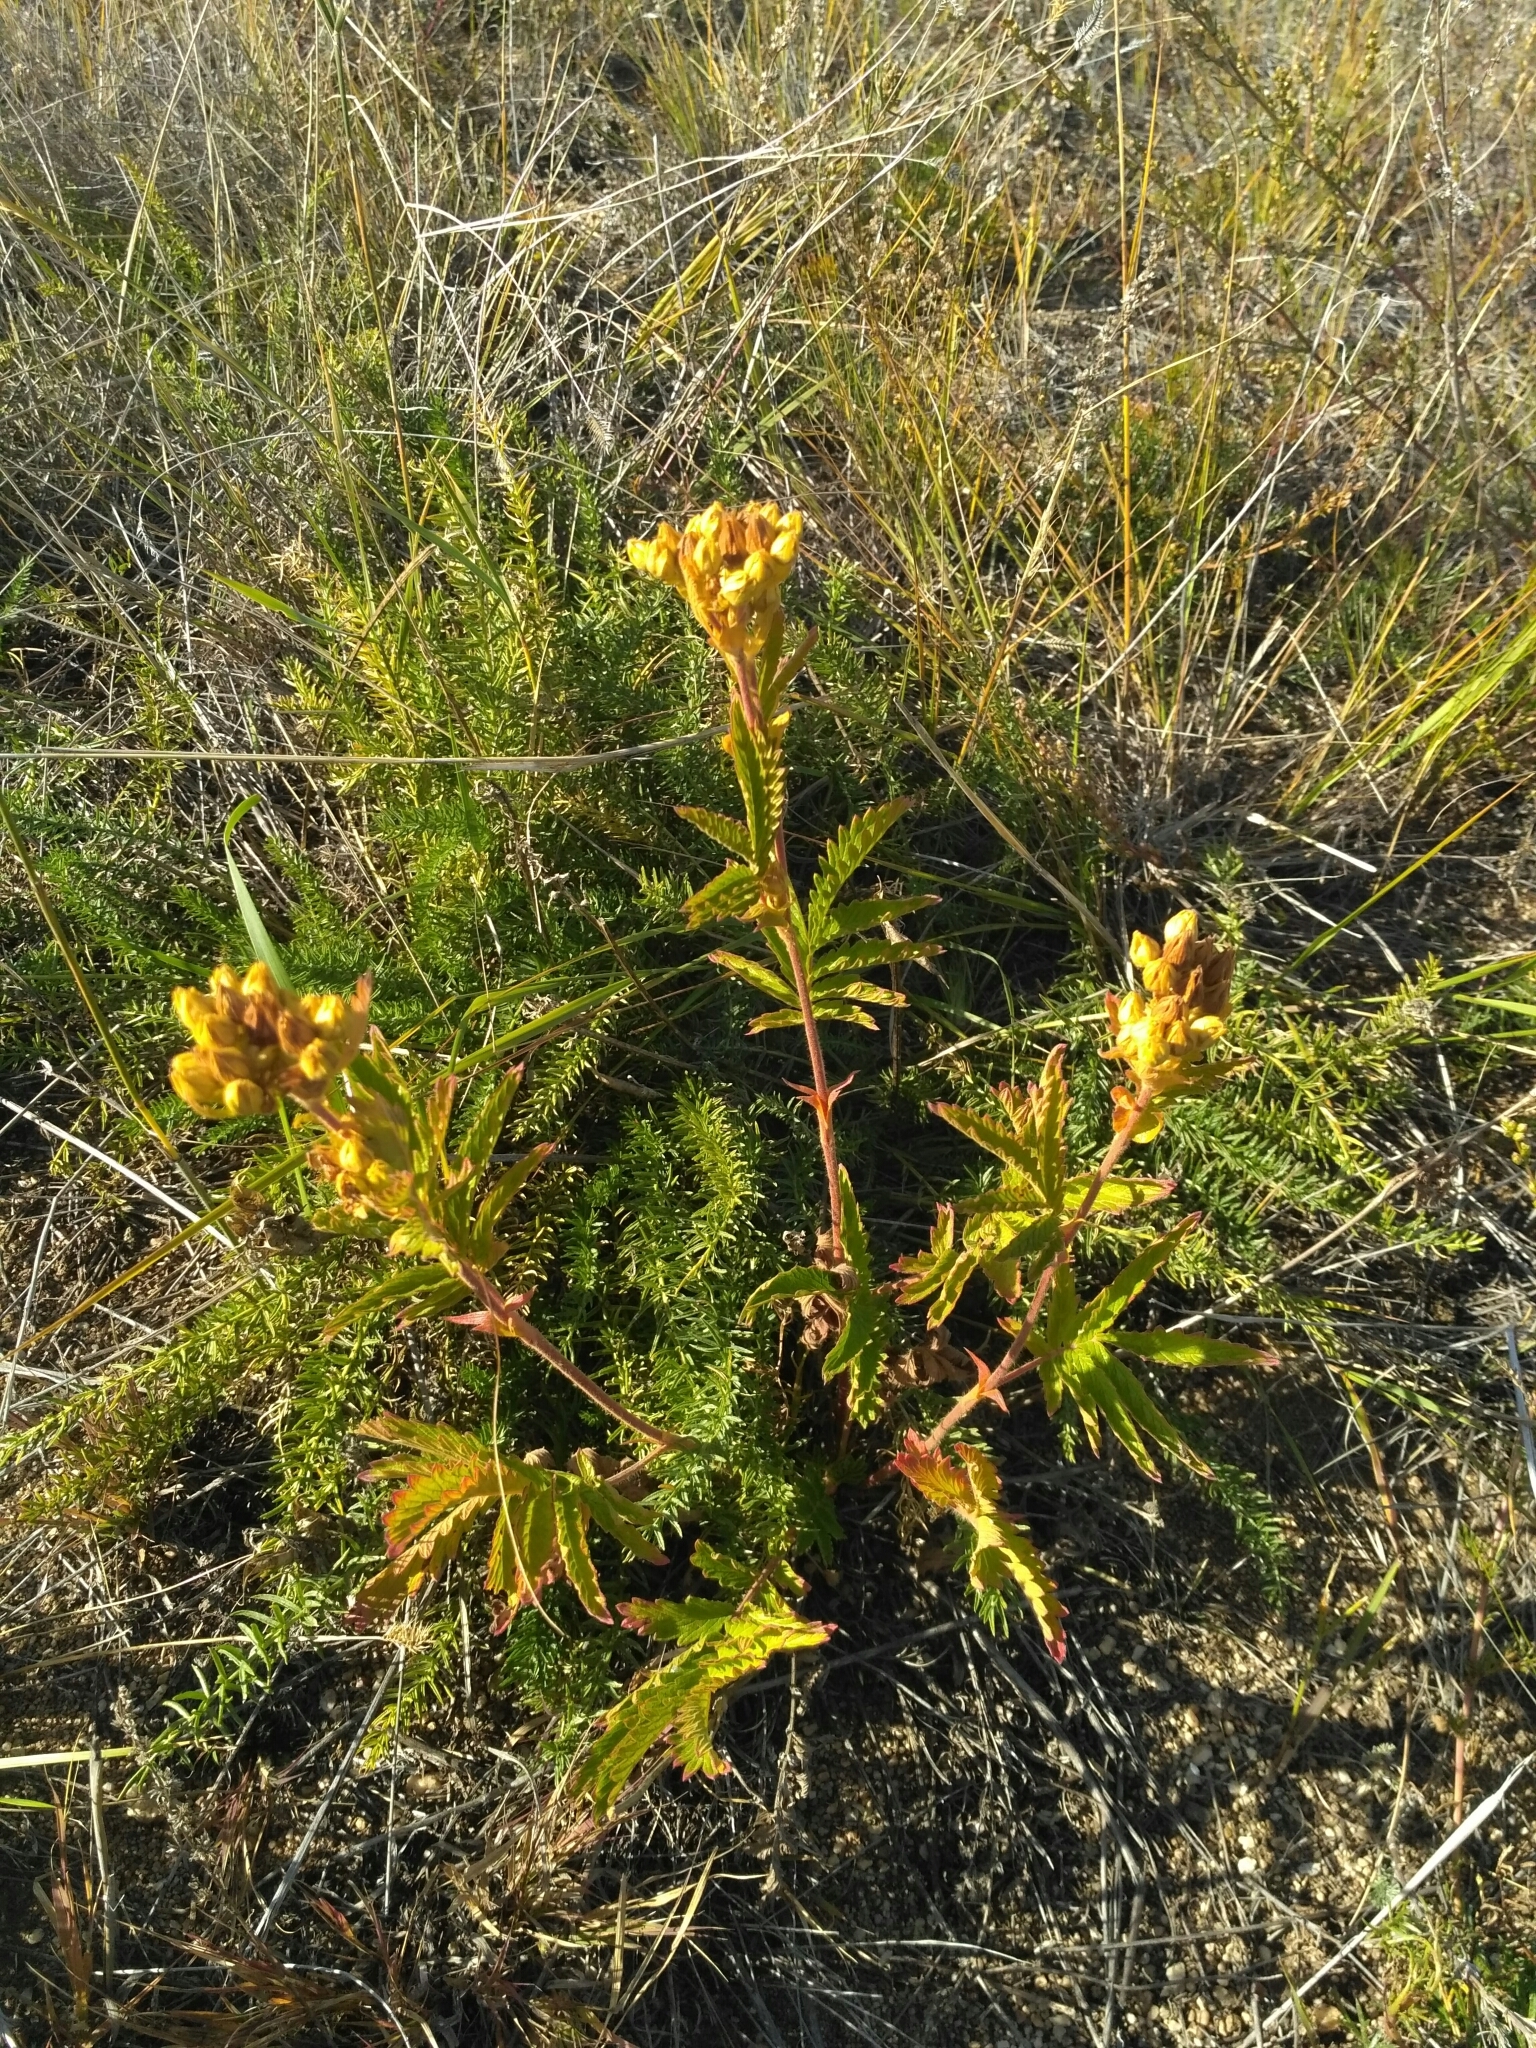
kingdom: Plantae
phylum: Tracheophyta
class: Magnoliopsida
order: Rosales
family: Rosaceae
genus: Potentilla
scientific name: Potentilla longifolia
